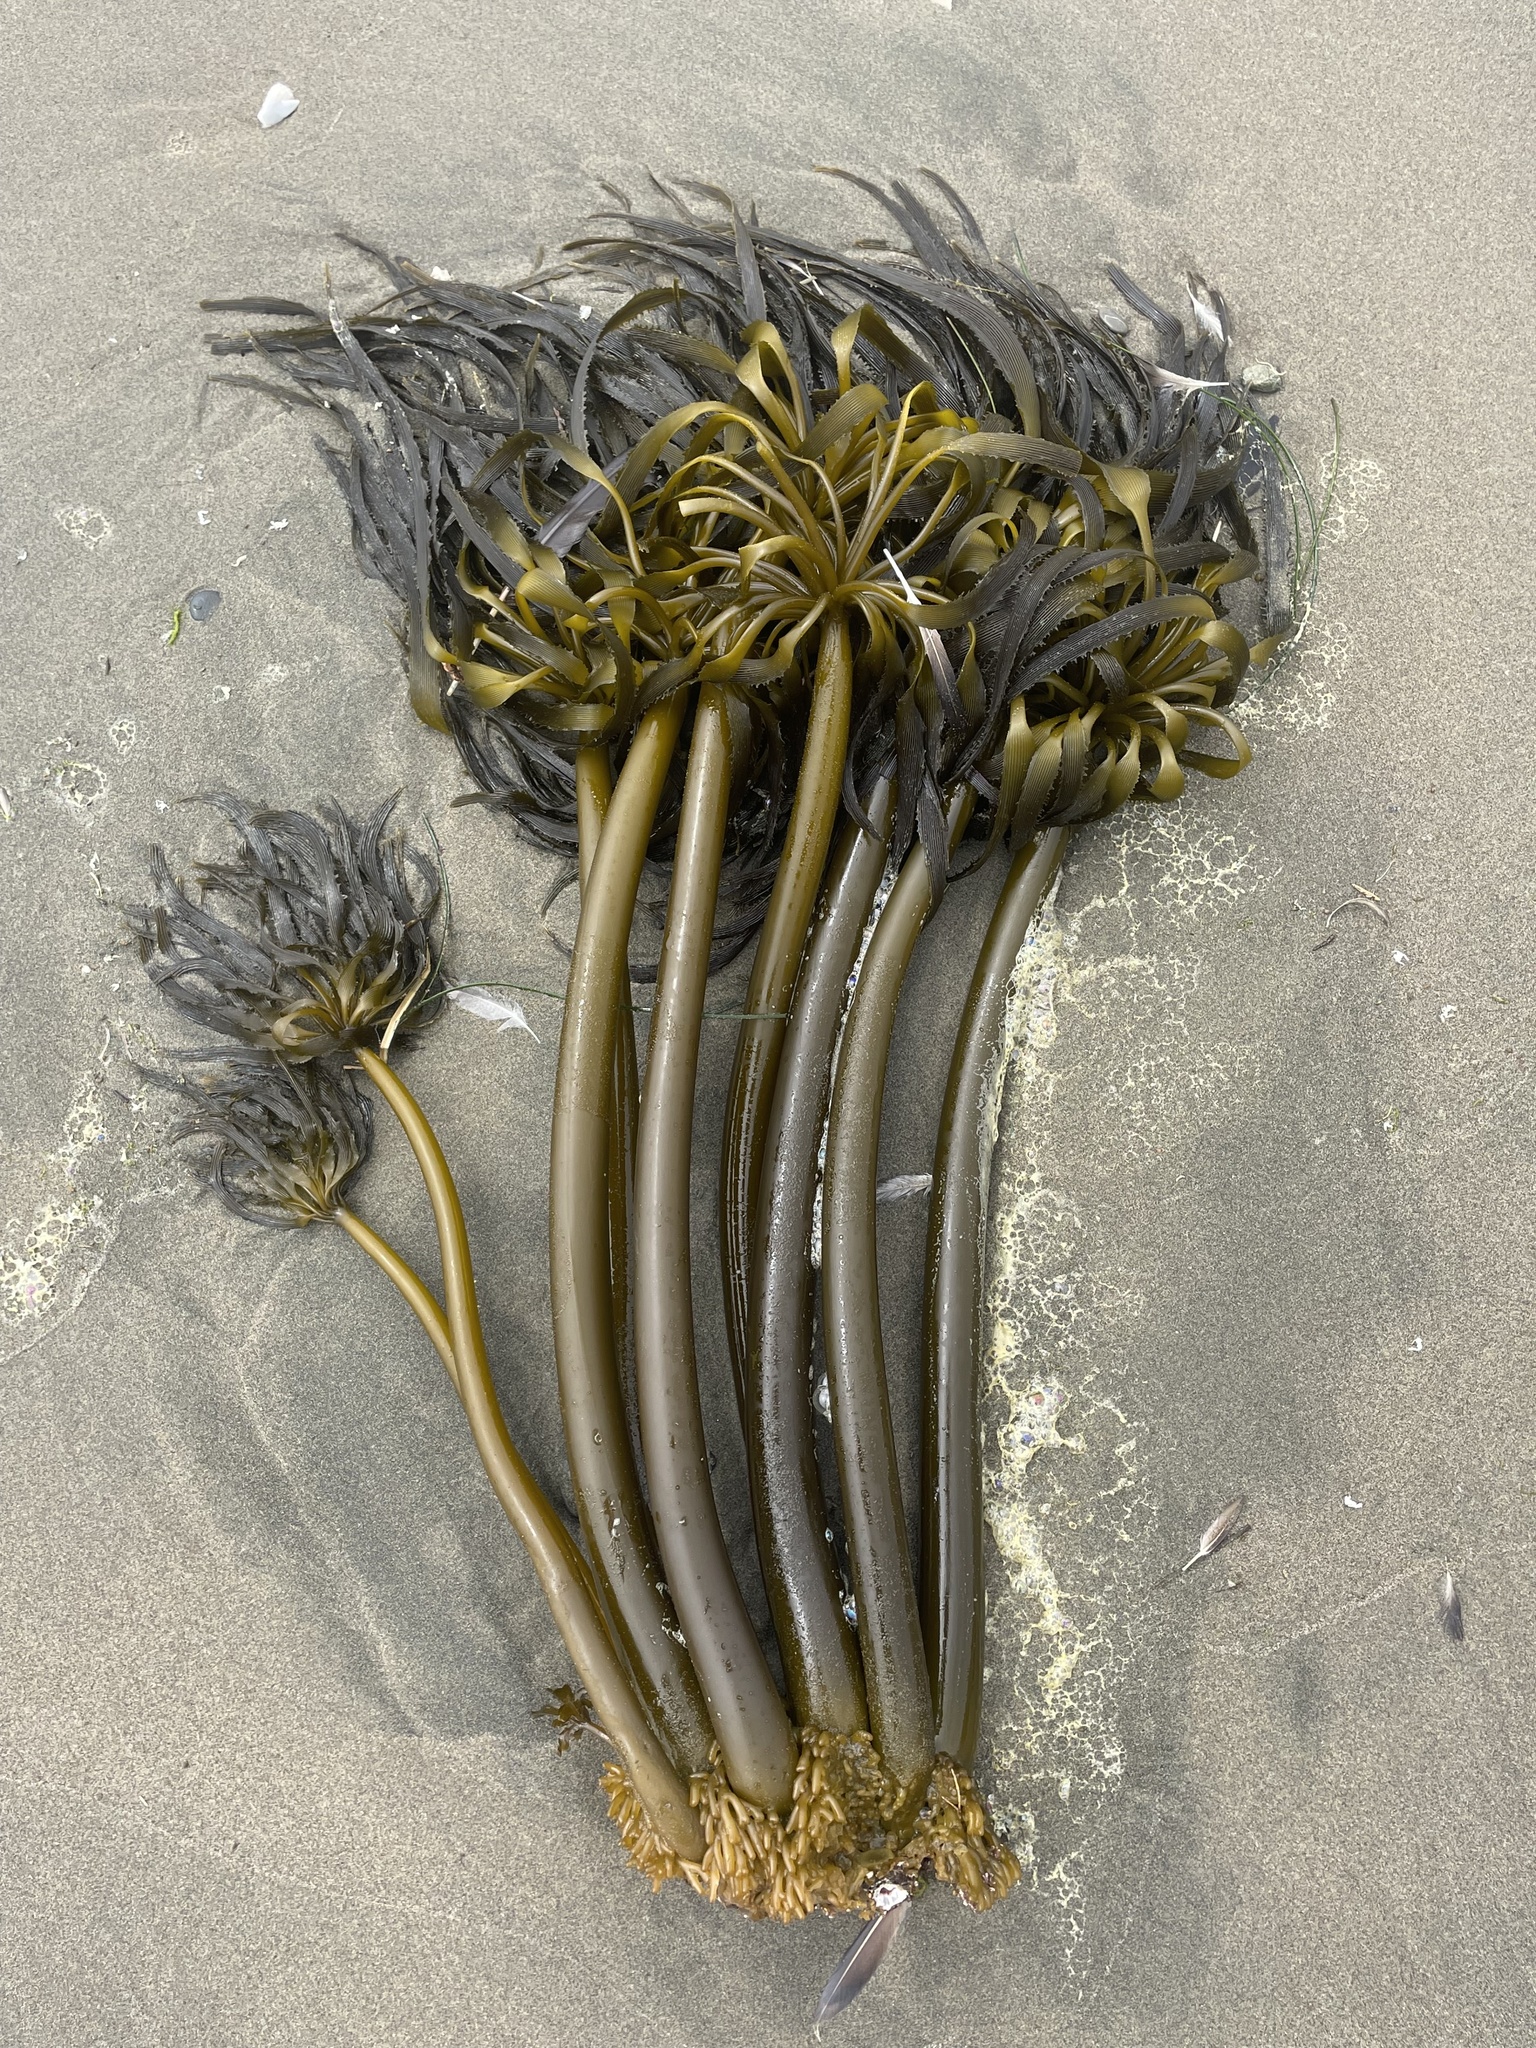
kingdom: Chromista
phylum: Ochrophyta
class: Phaeophyceae
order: Laminariales
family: Laminariaceae
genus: Postelsia
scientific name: Postelsia palmiformis
